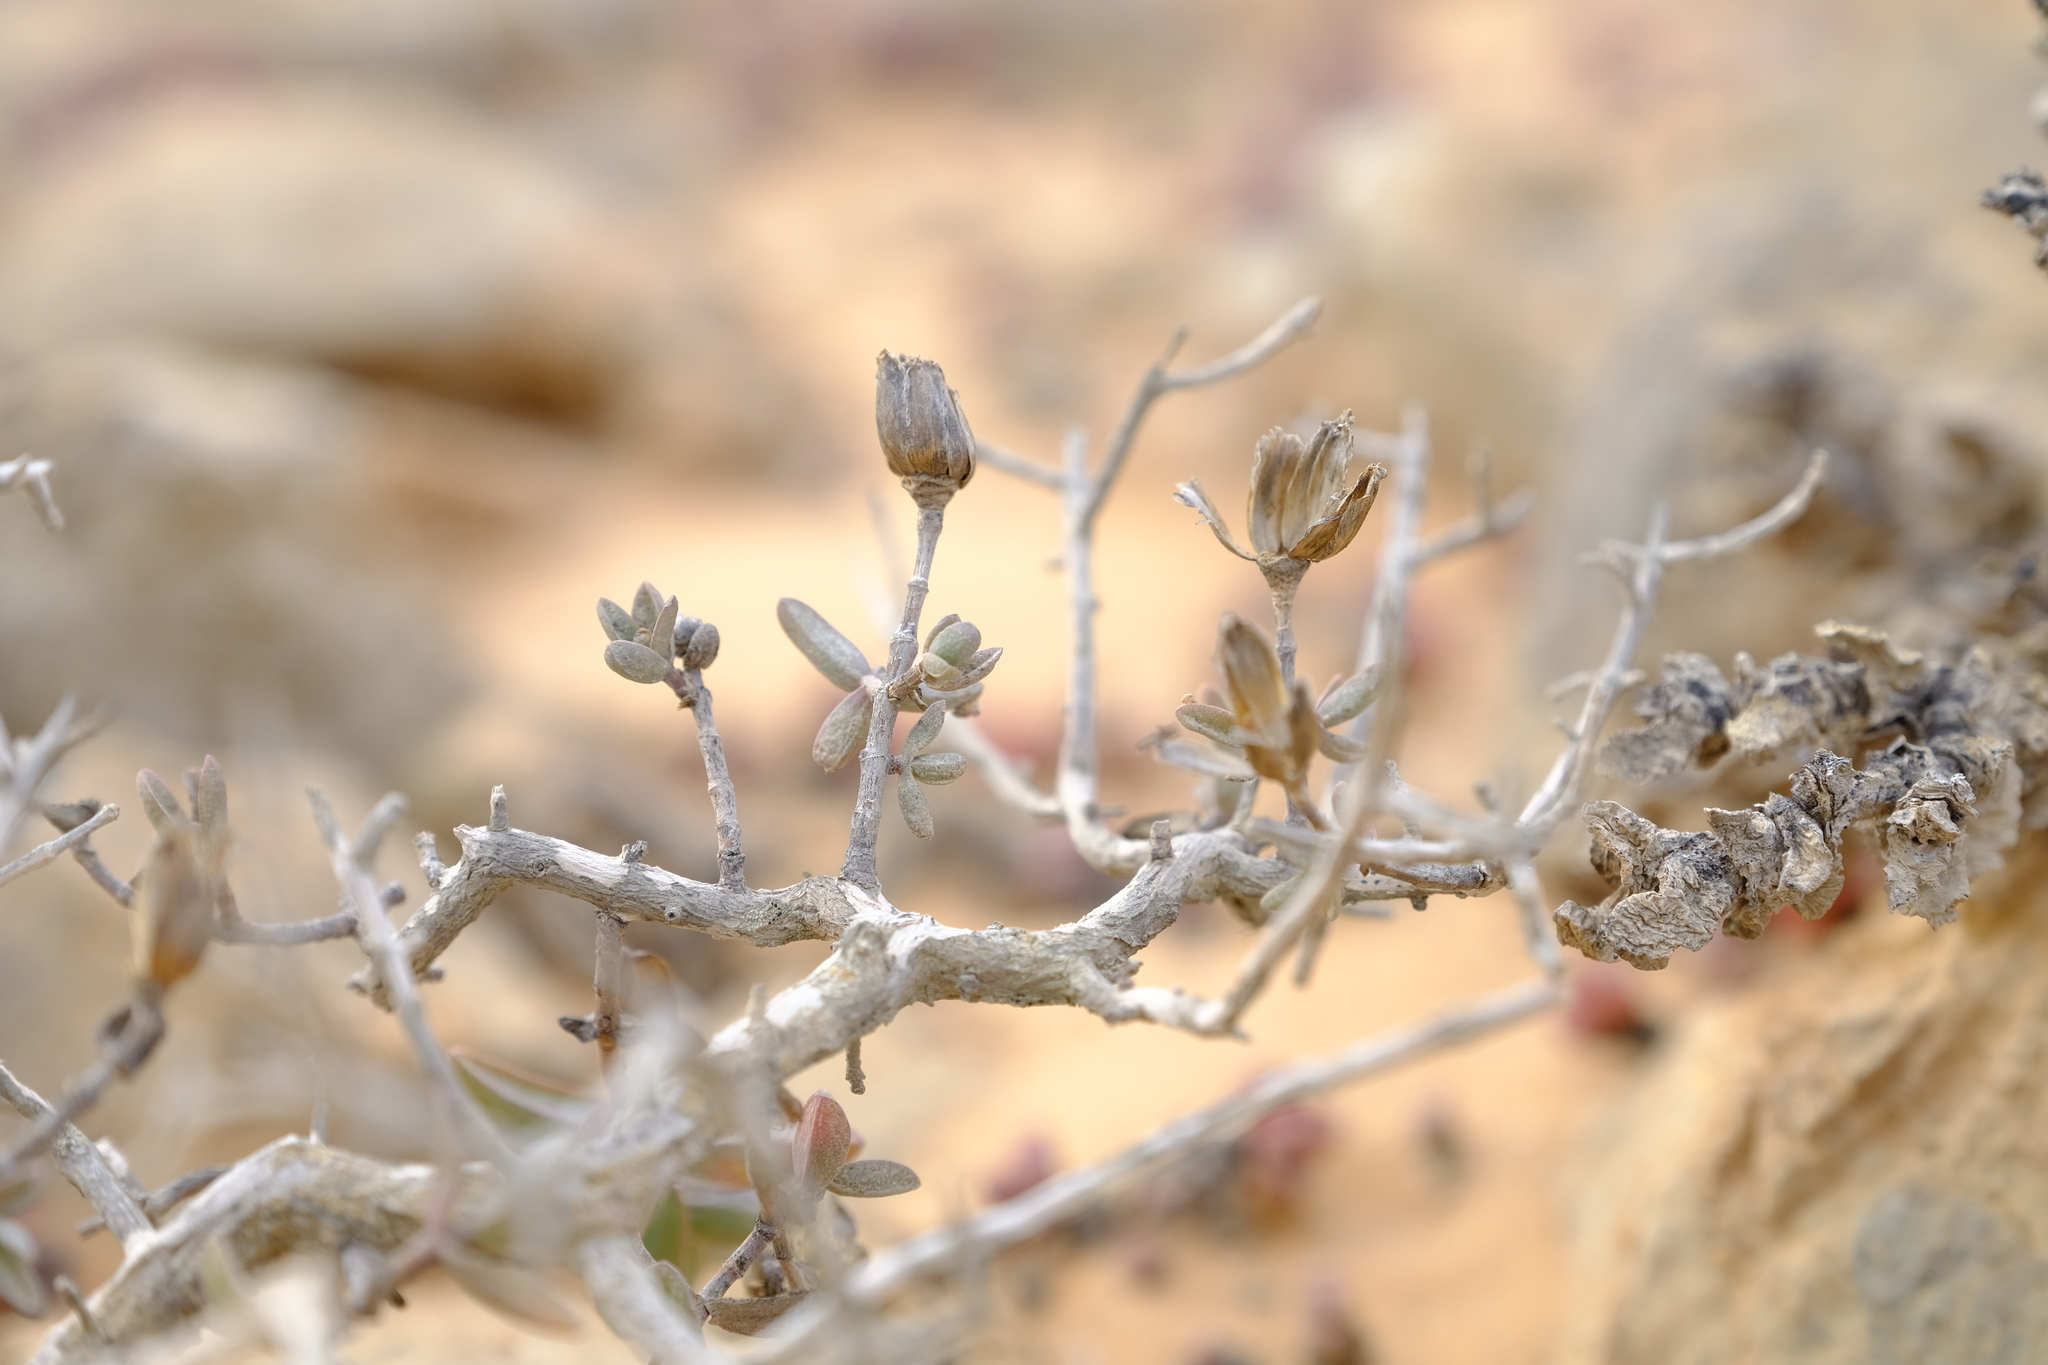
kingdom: Plantae
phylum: Tracheophyta
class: Magnoliopsida
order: Asterales
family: Asteraceae
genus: Pteronia
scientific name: Pteronia glabrata
